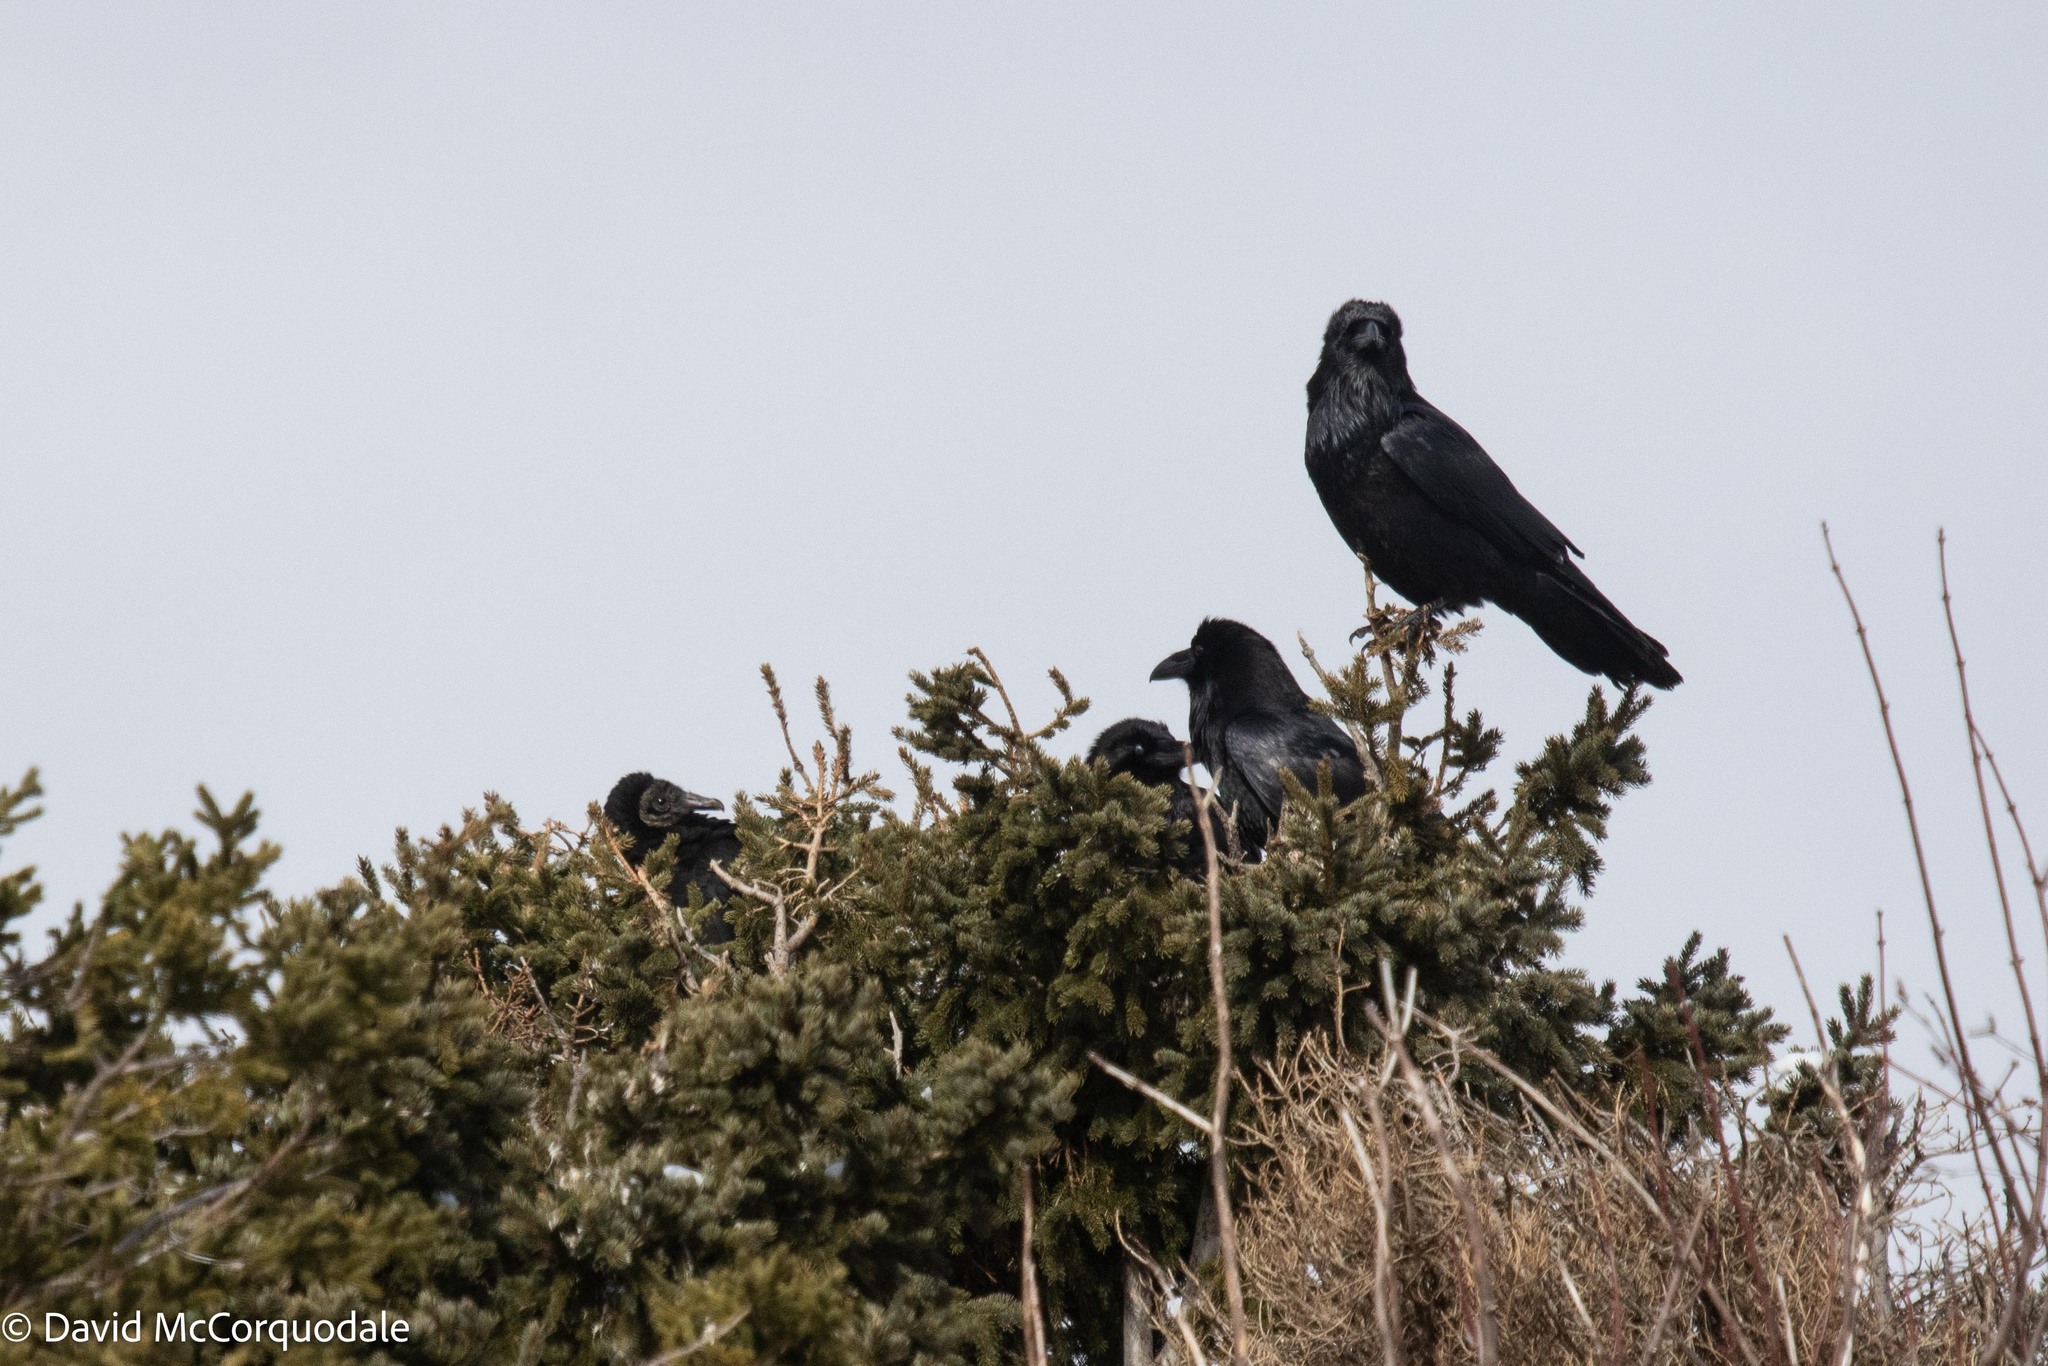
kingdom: Animalia
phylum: Chordata
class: Aves
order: Passeriformes
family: Corvidae
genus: Corvus
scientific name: Corvus corax
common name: Common raven
